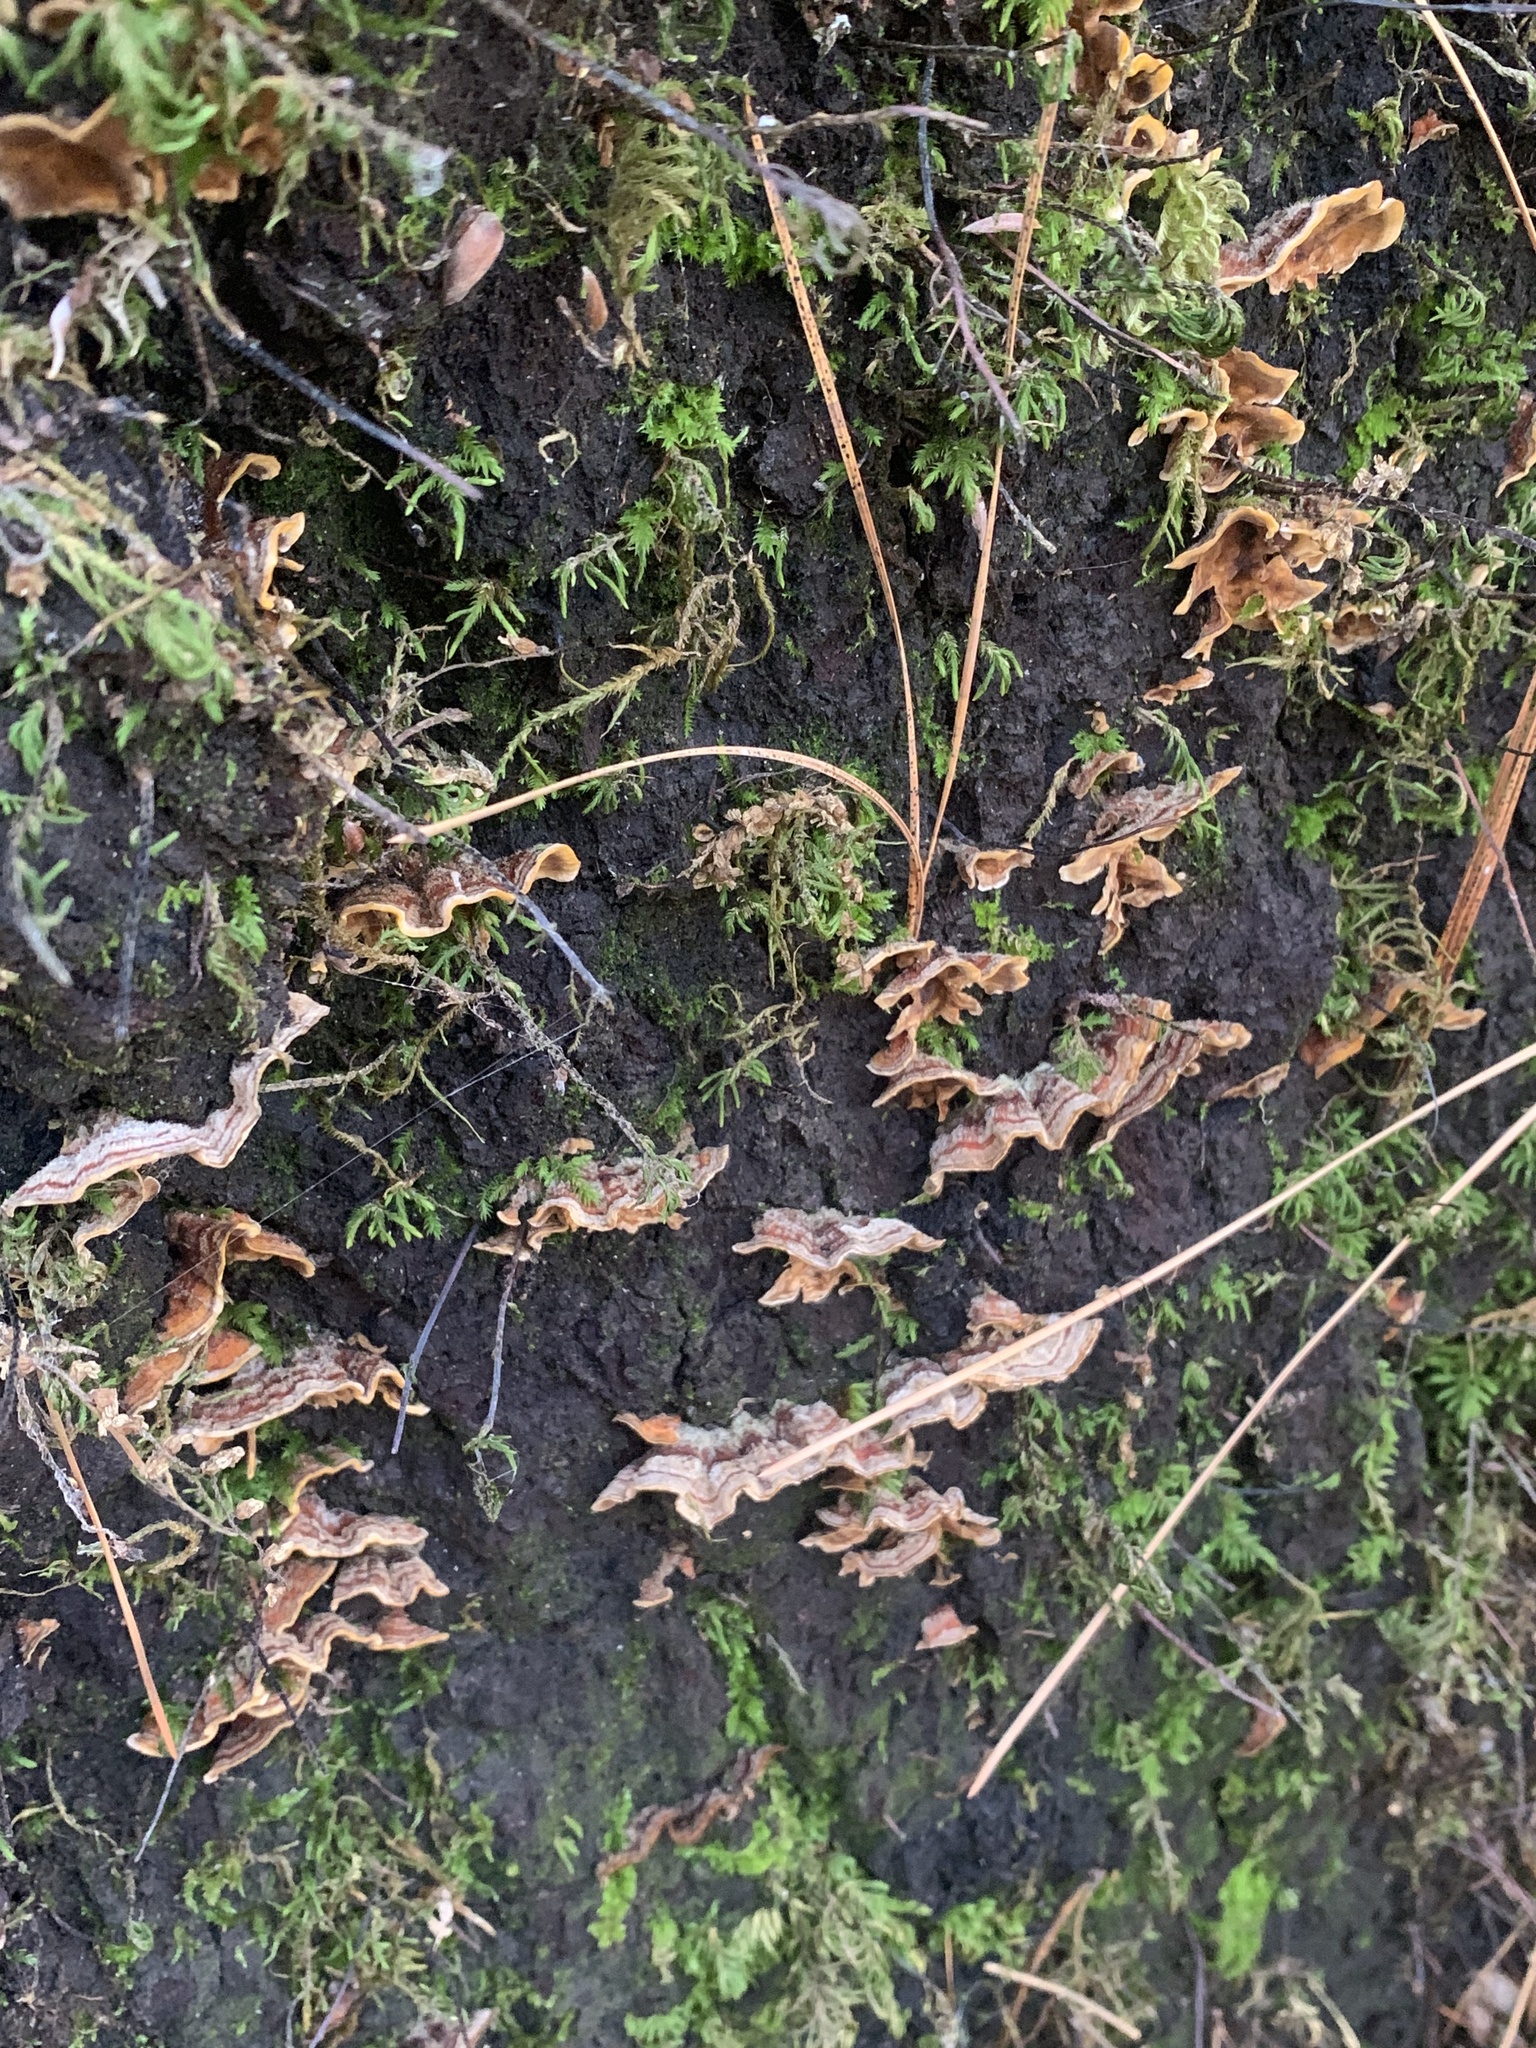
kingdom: Fungi
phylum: Basidiomycota
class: Agaricomycetes
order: Russulales
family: Stereaceae
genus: Stereum
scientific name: Stereum hirsutum
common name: Hairy curtain crust
